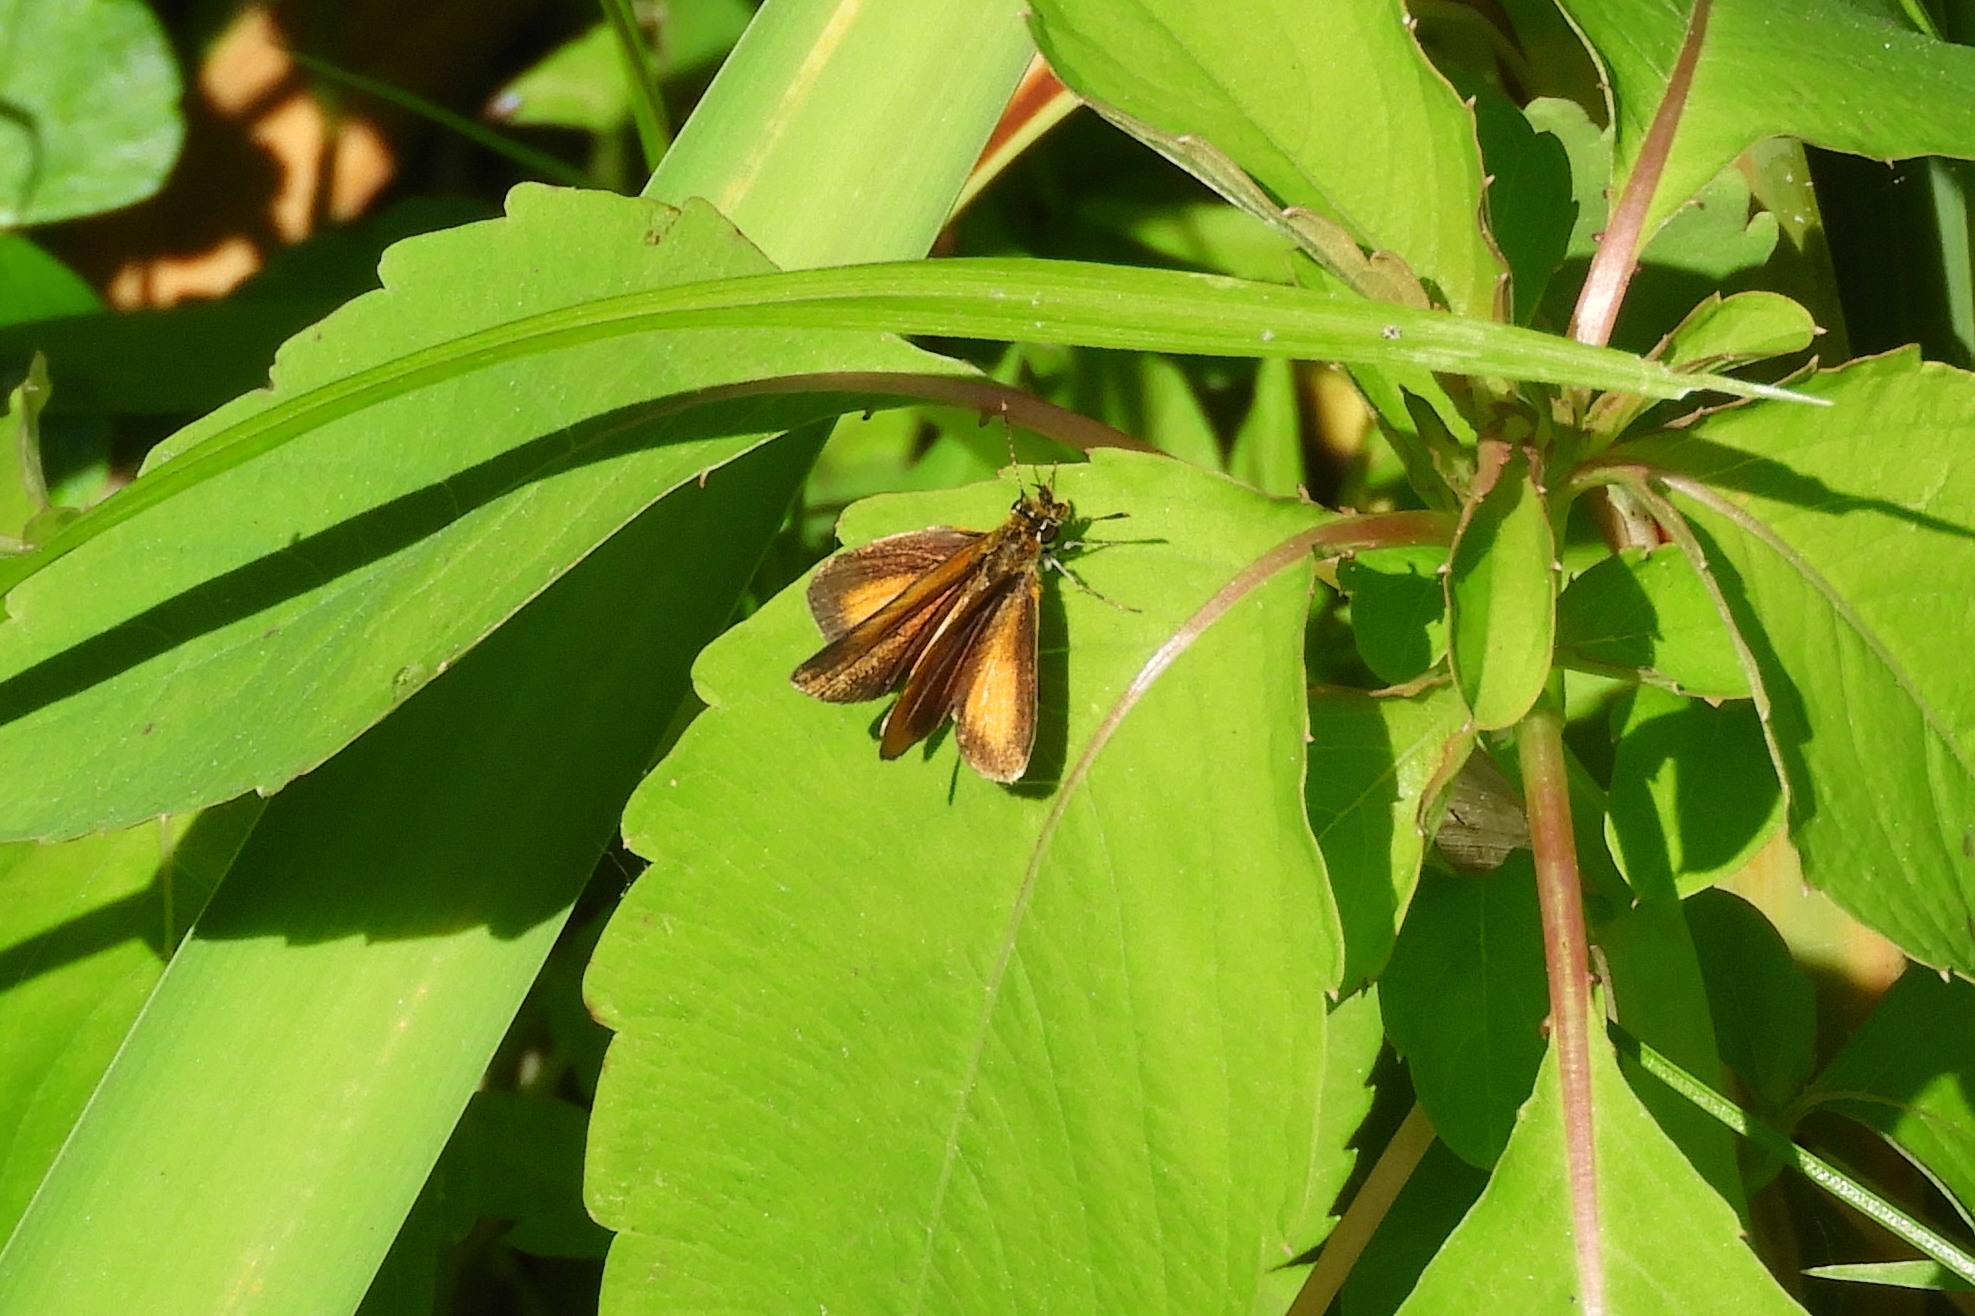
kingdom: Animalia
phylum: Arthropoda
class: Insecta
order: Lepidoptera
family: Hesperiidae
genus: Ancyloxypha
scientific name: Ancyloxypha numitor
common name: Least skipper
